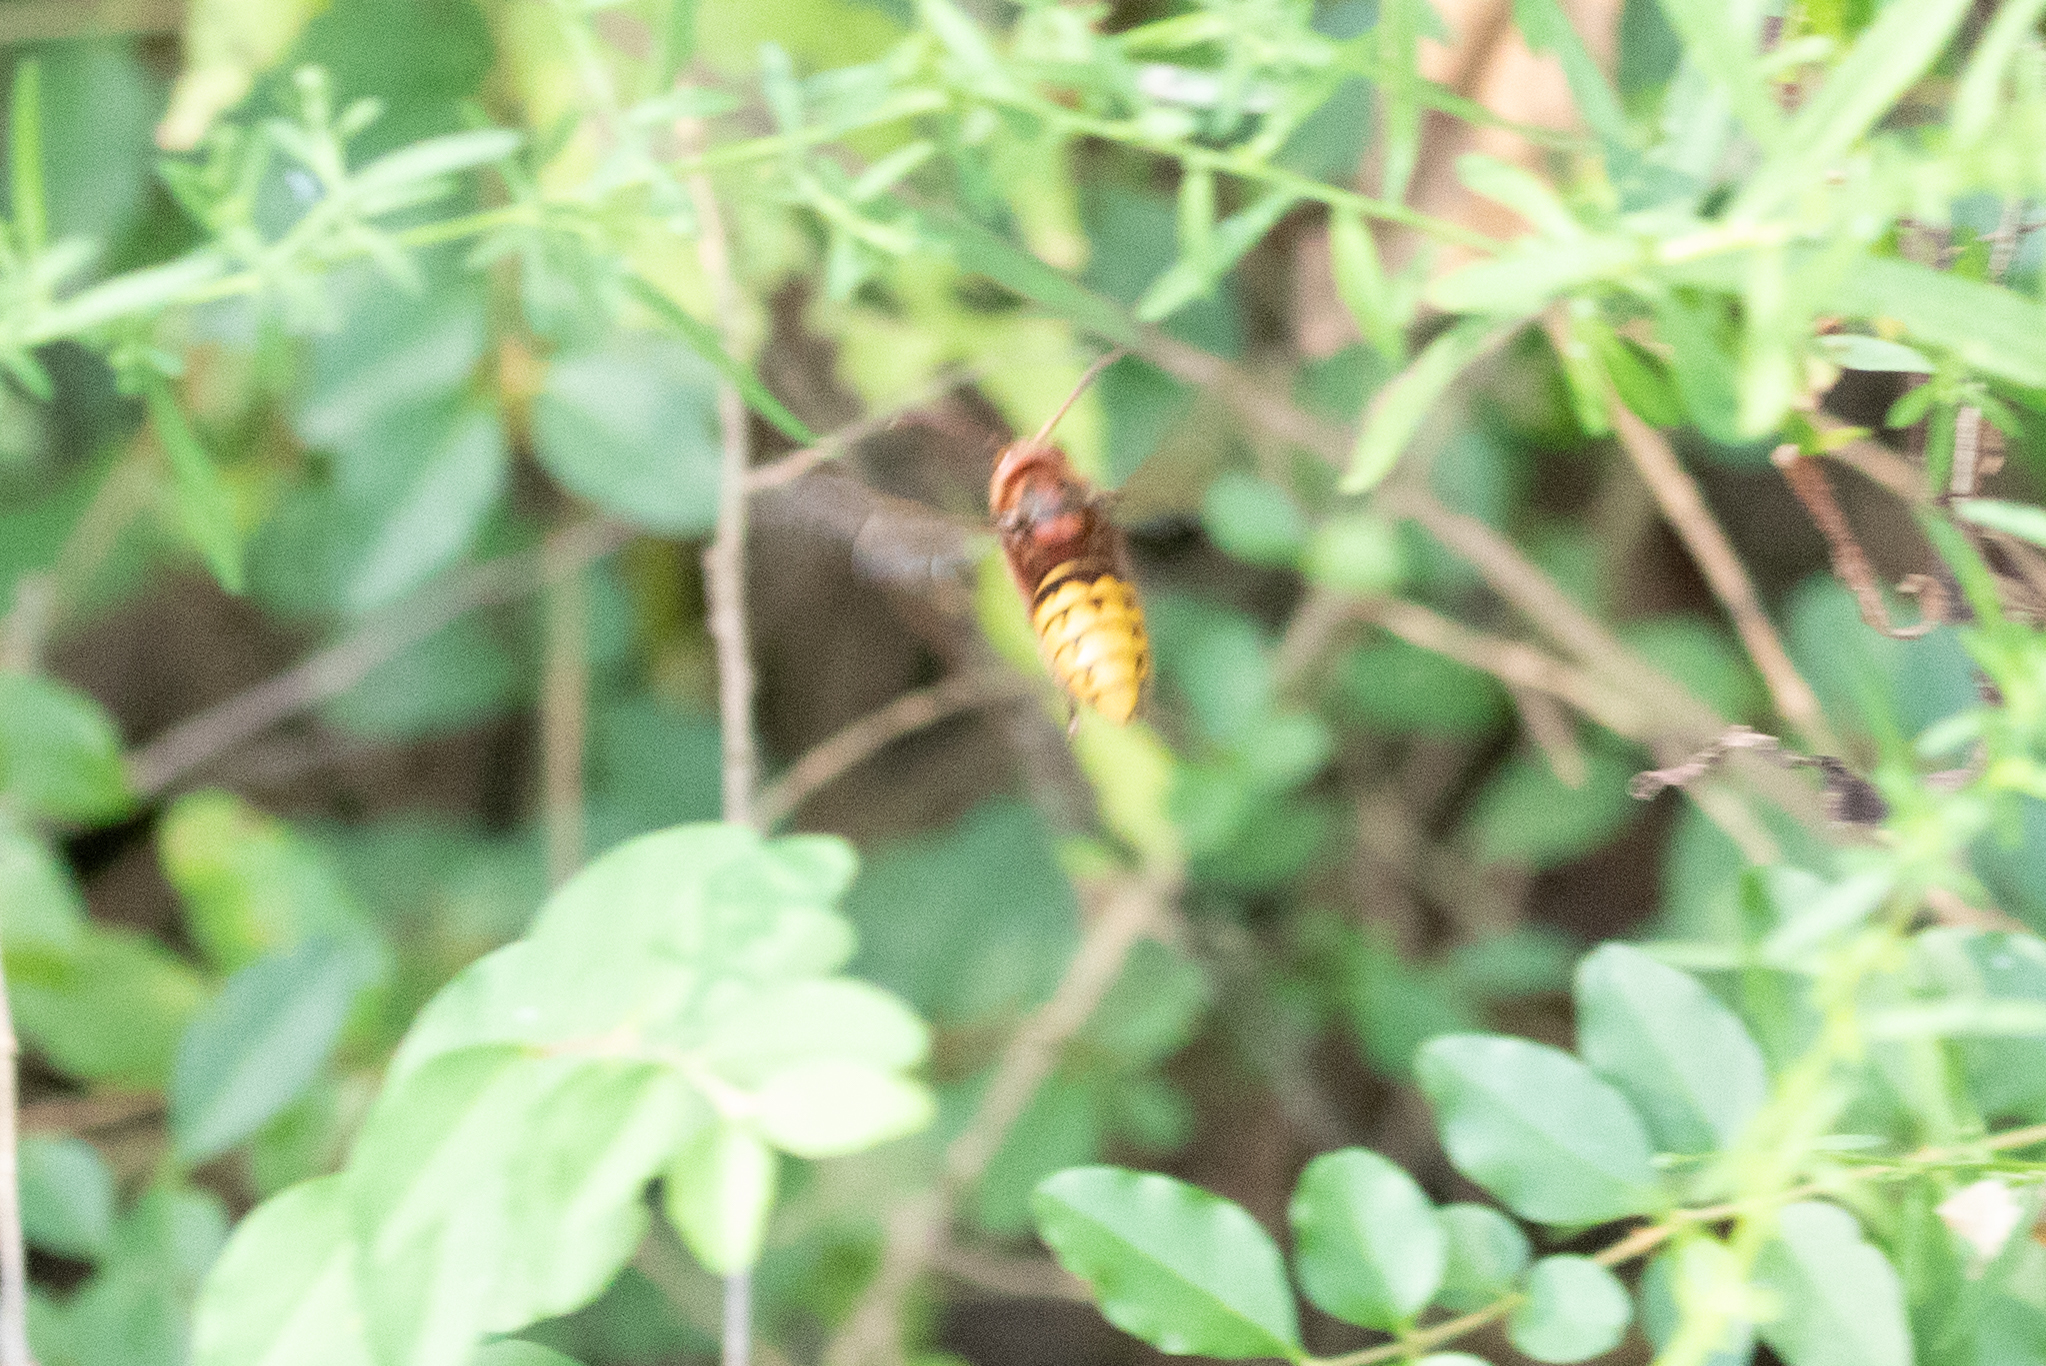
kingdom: Animalia
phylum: Arthropoda
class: Insecta
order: Hymenoptera
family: Vespidae
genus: Vespa
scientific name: Vespa crabro
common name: Hornet
